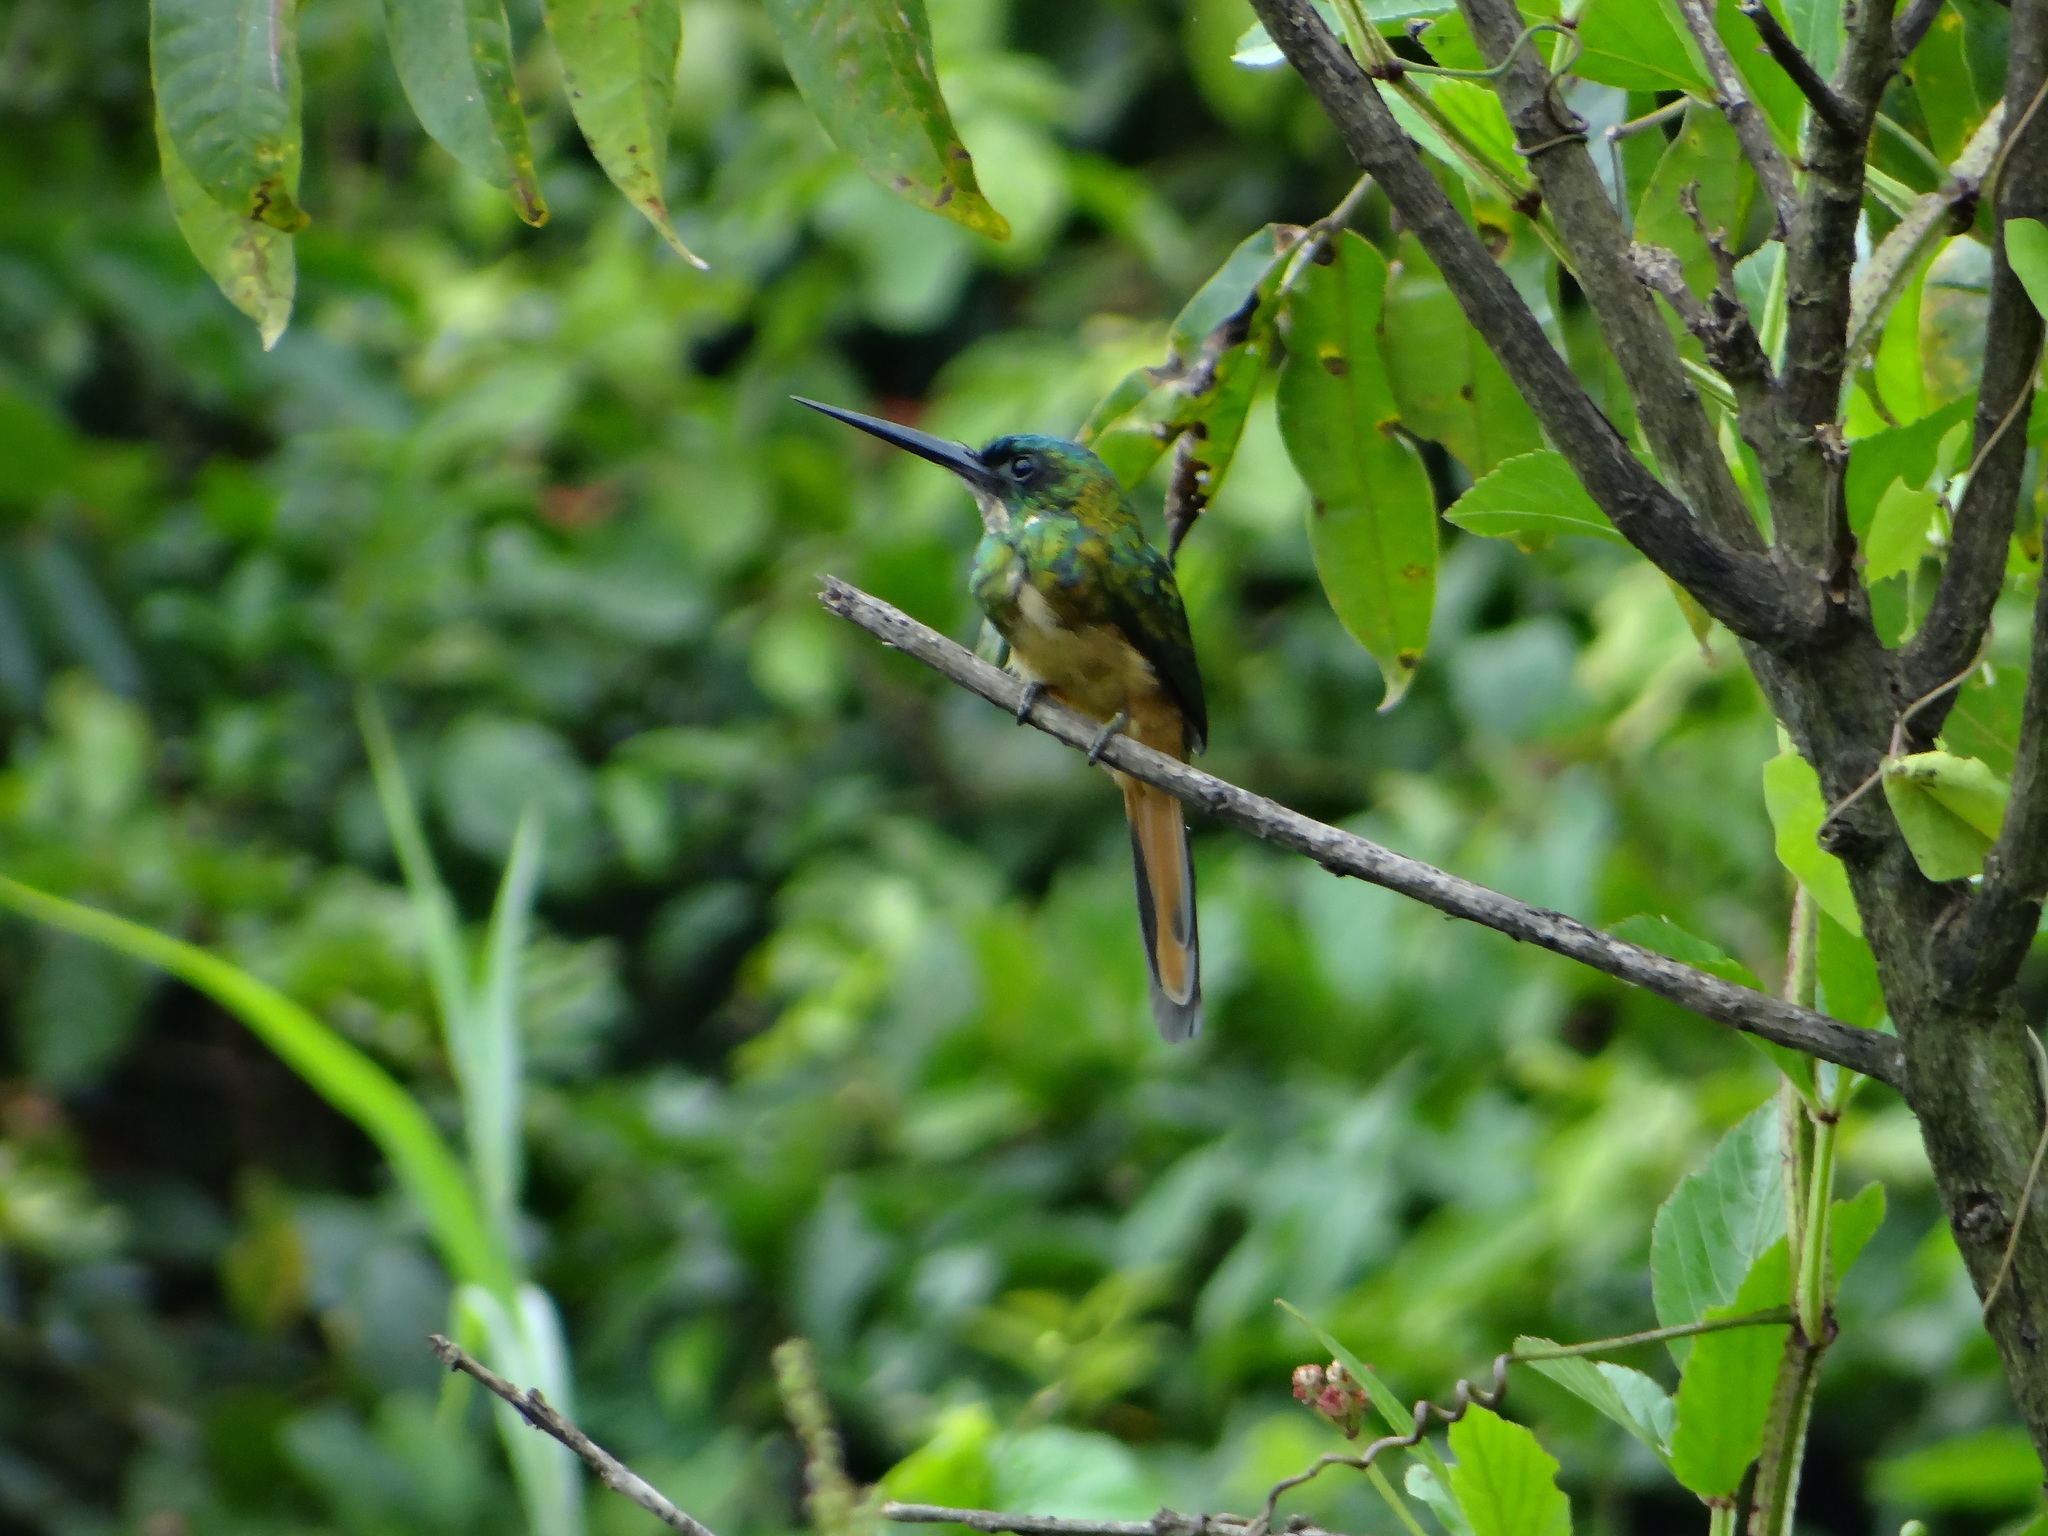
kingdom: Animalia
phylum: Chordata
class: Aves
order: Piciformes
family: Galbulidae
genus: Galbula
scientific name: Galbula leucogastra
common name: Bronzy jacamar
